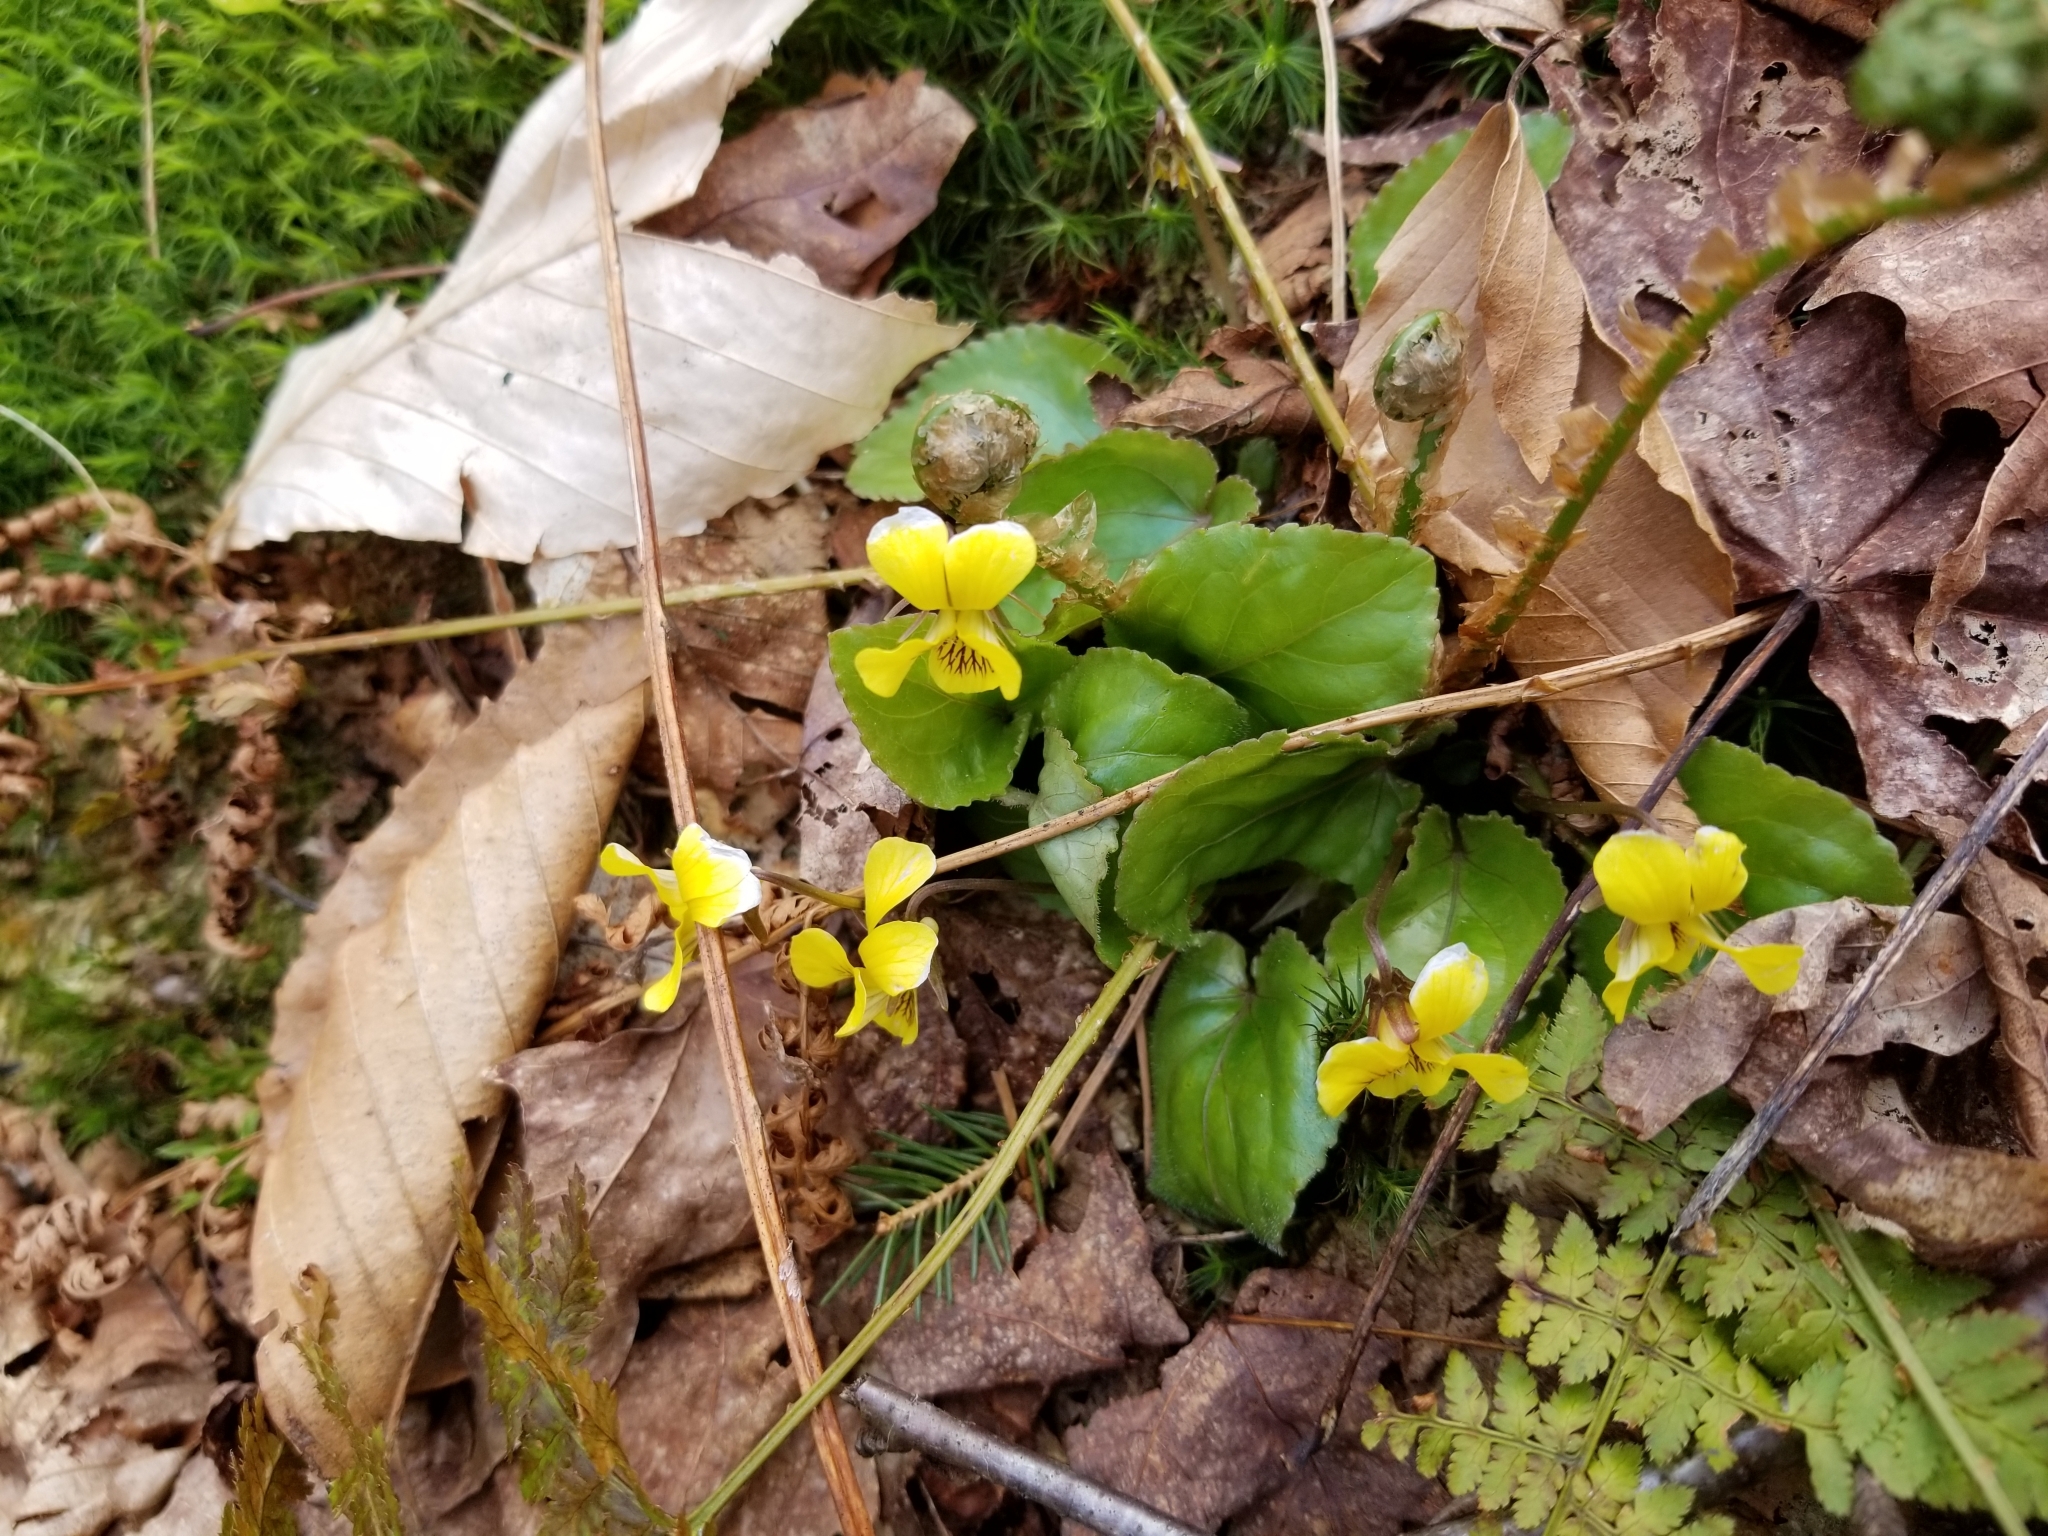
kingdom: Plantae
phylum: Tracheophyta
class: Magnoliopsida
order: Malpighiales
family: Violaceae
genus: Viola
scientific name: Viola rotundifolia
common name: Early yellow violet
